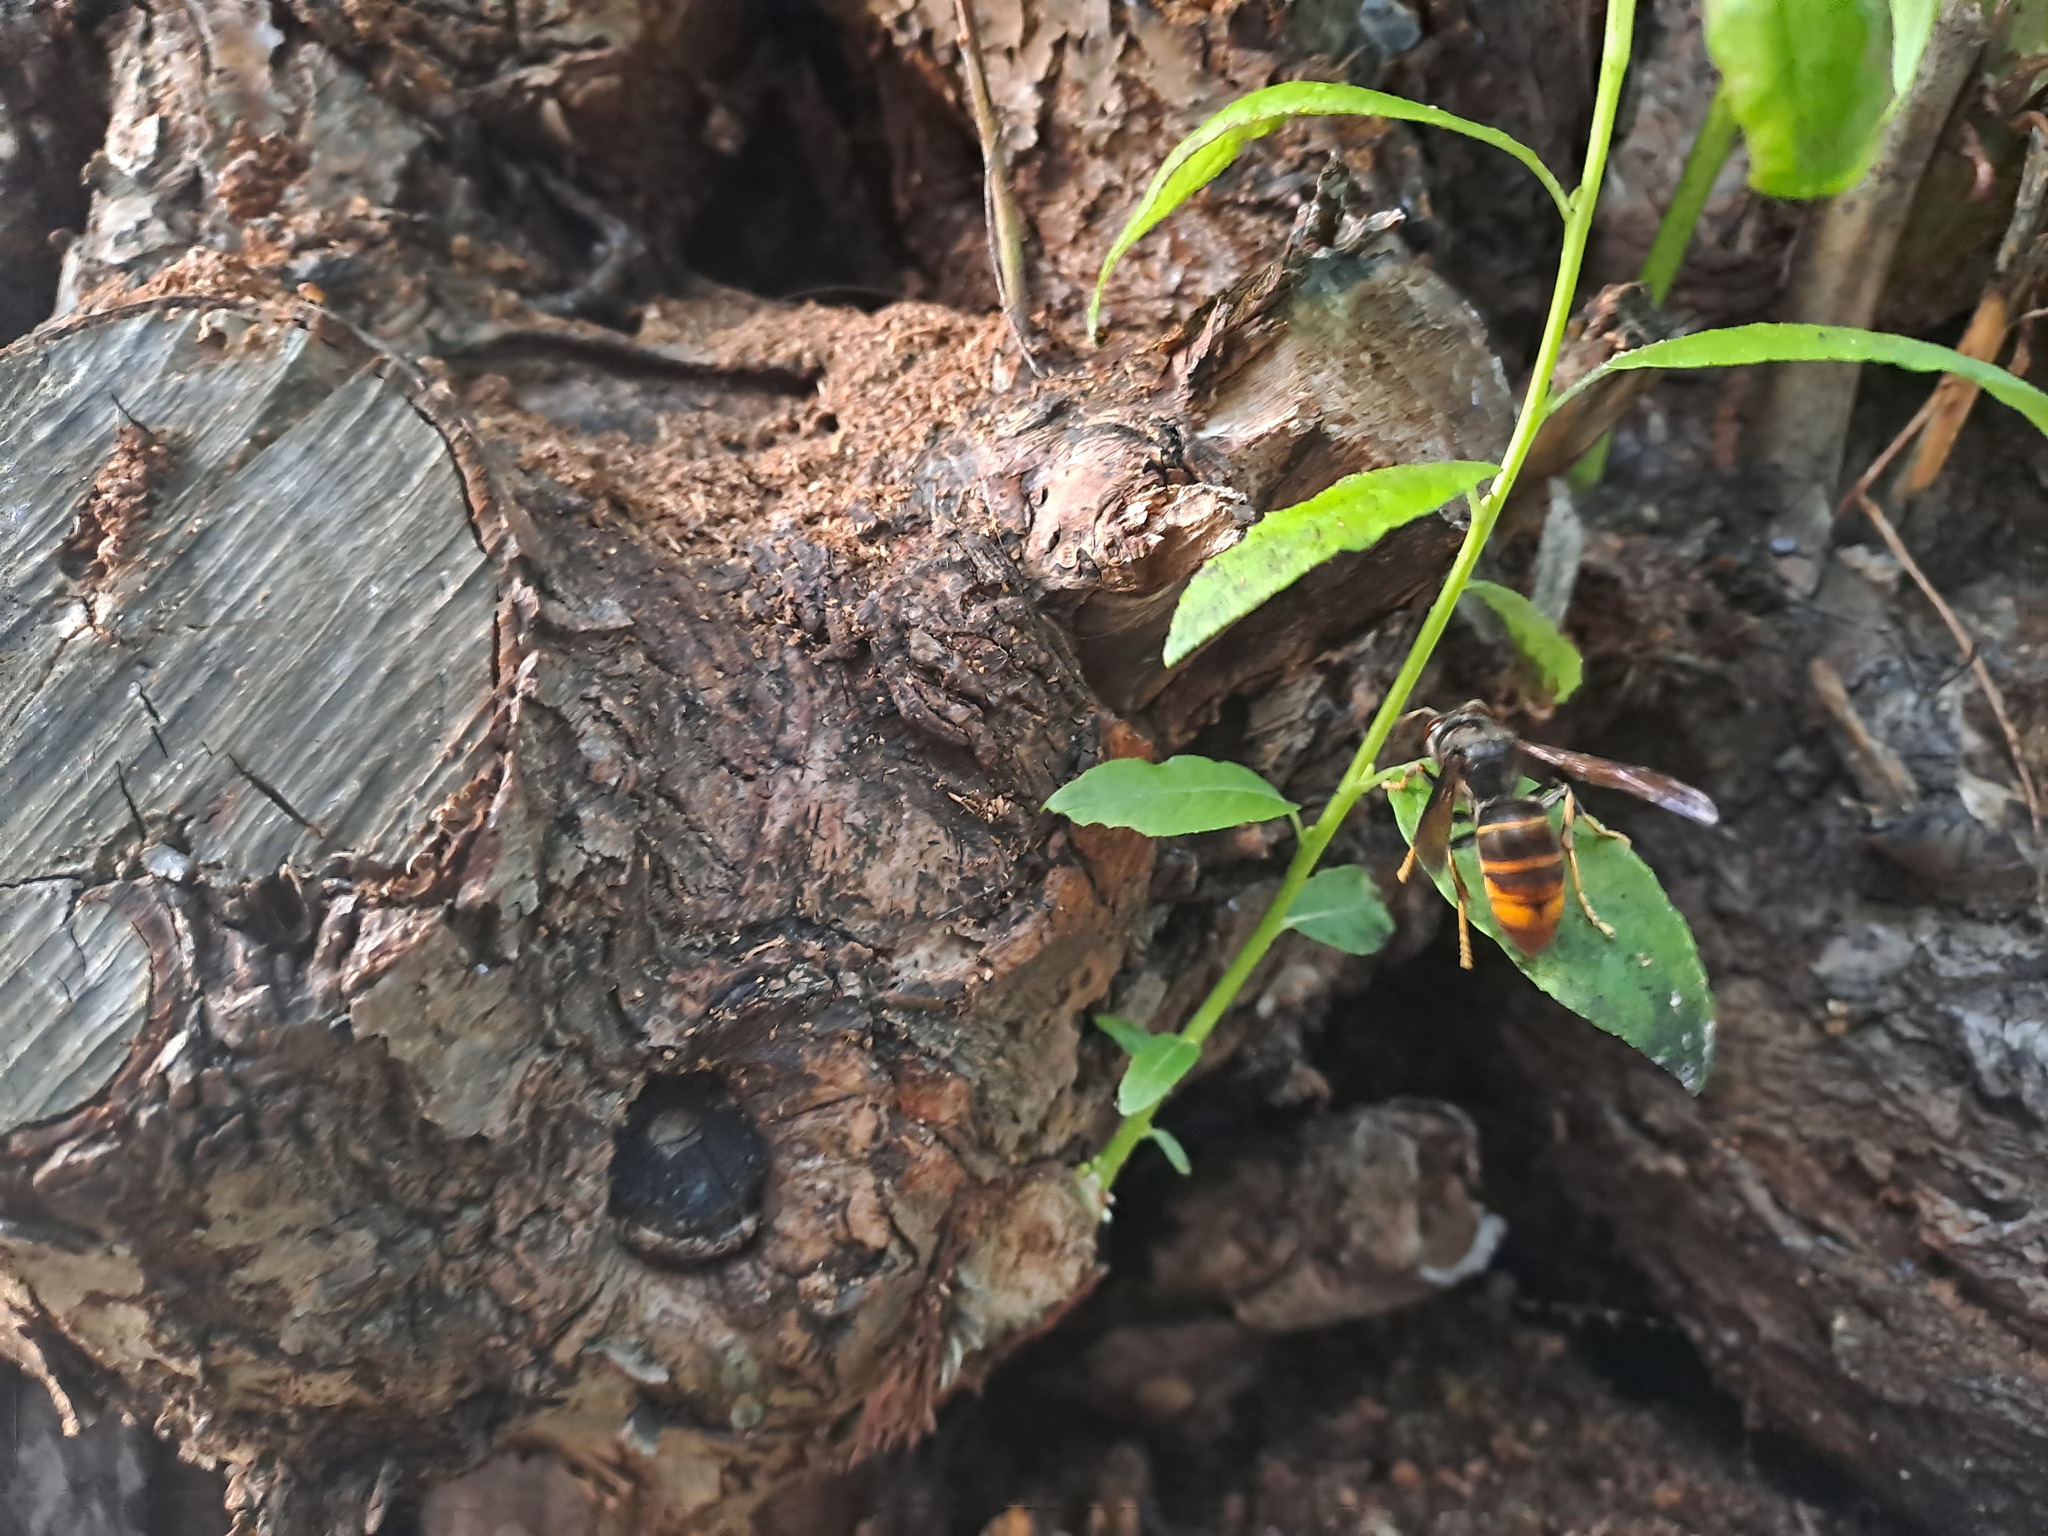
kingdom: Animalia
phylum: Arthropoda
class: Insecta
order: Hymenoptera
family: Vespidae
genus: Vespa
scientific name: Vespa velutina
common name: Asian hornet
